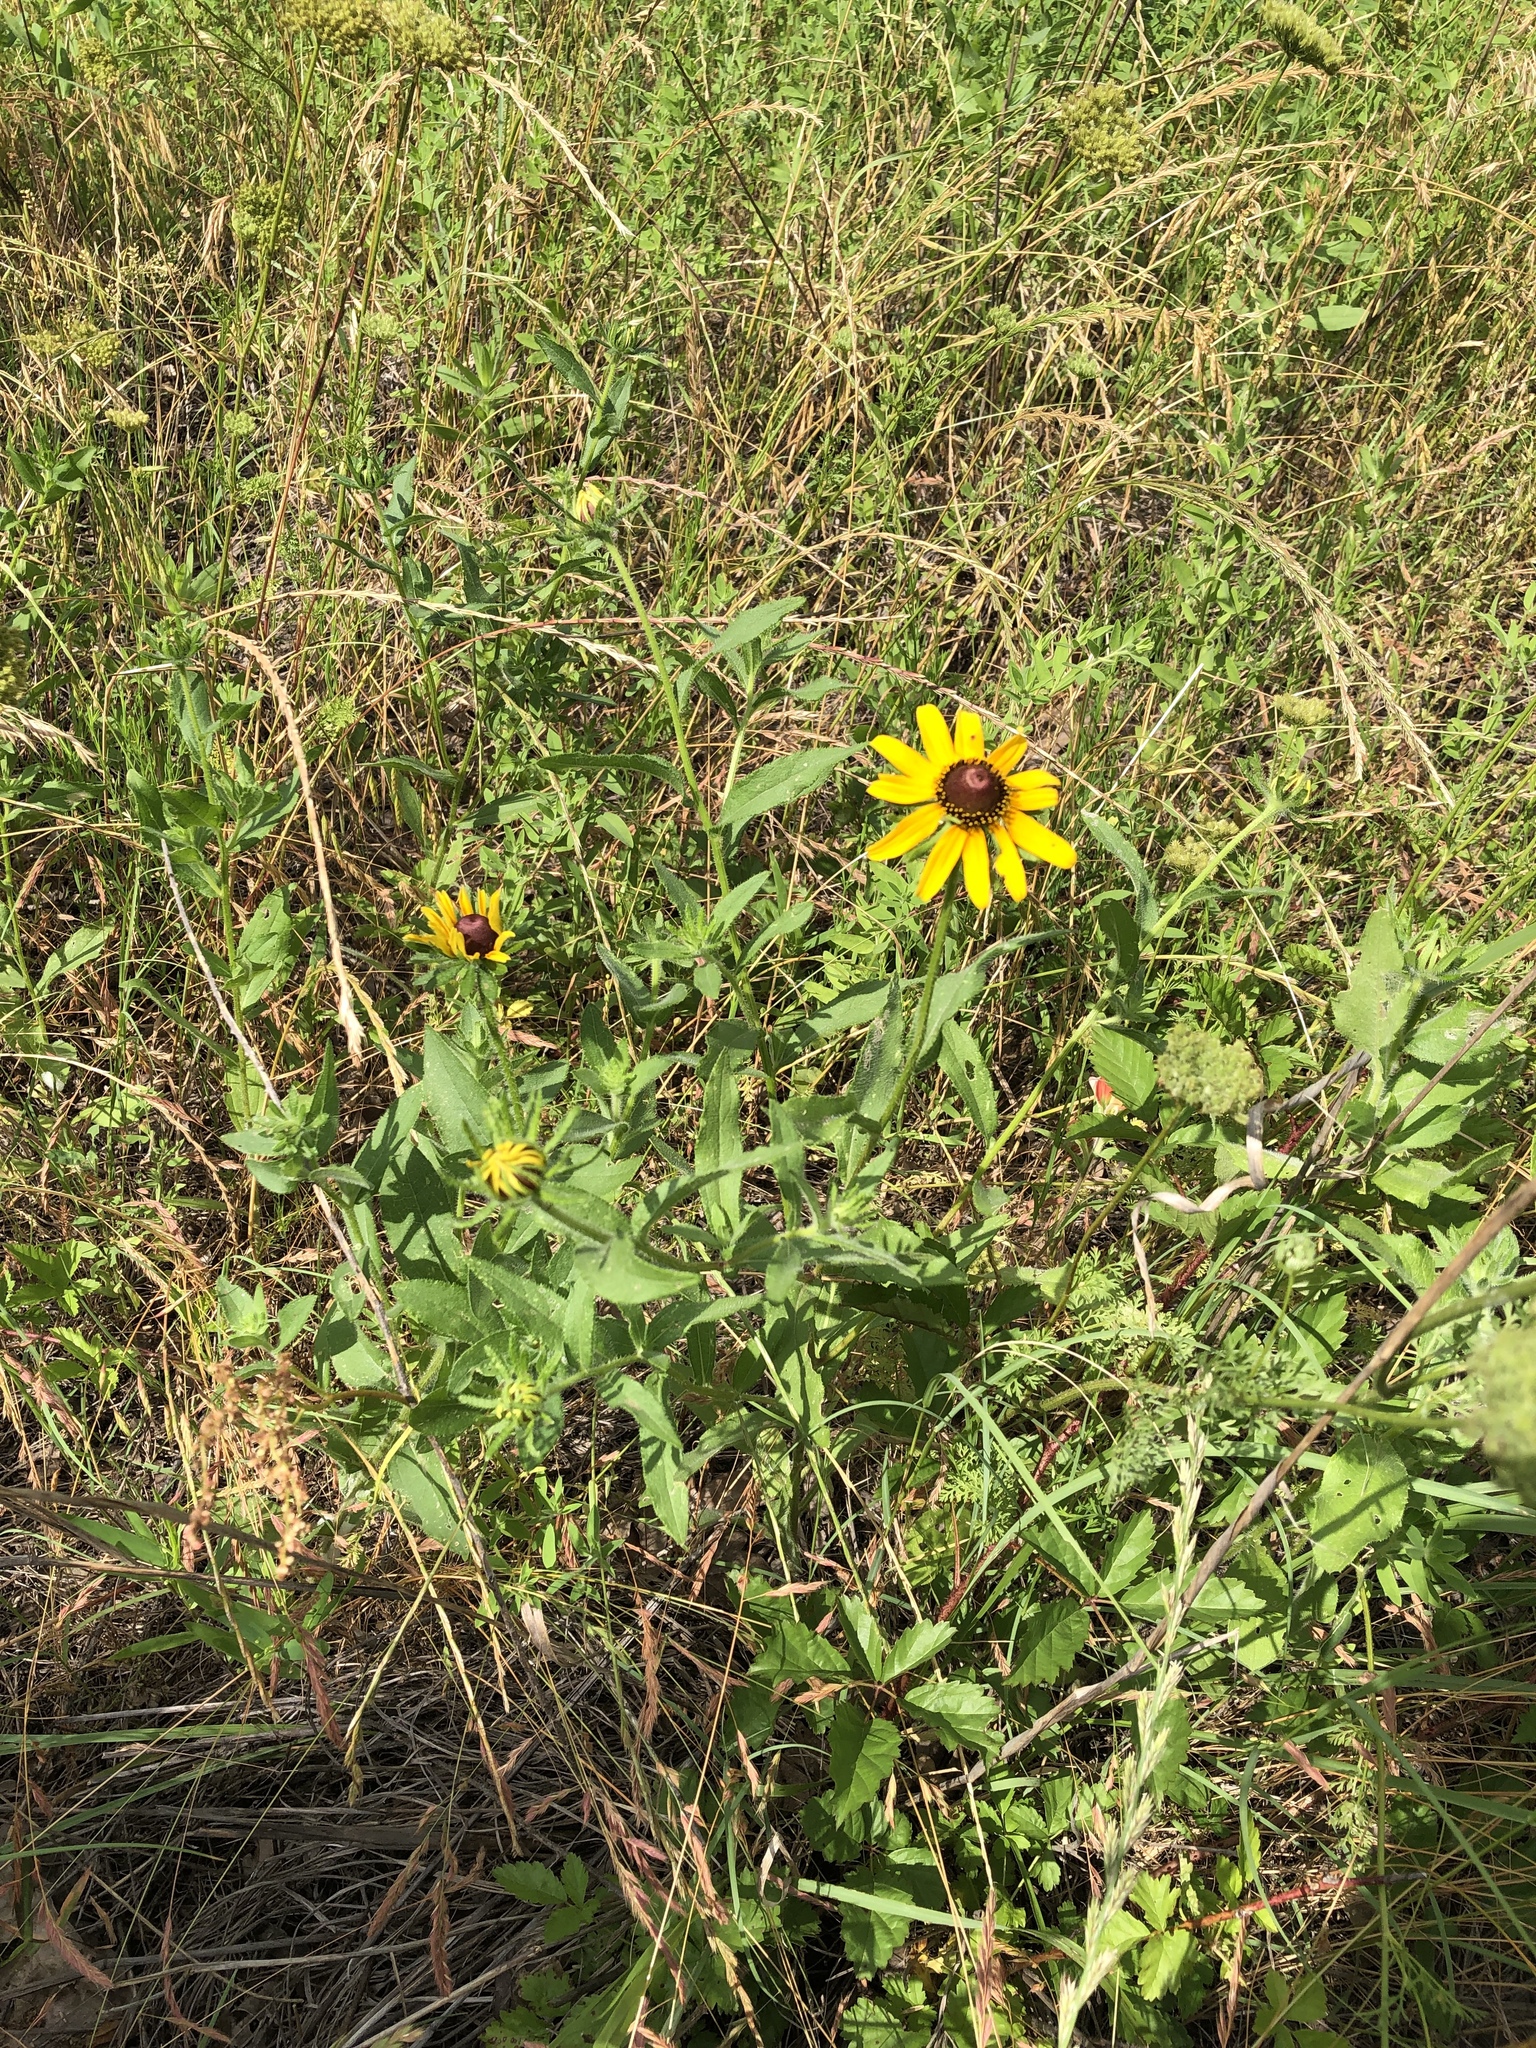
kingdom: Plantae
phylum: Tracheophyta
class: Magnoliopsida
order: Asterales
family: Asteraceae
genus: Rudbeckia
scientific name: Rudbeckia hirta
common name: Black-eyed-susan
